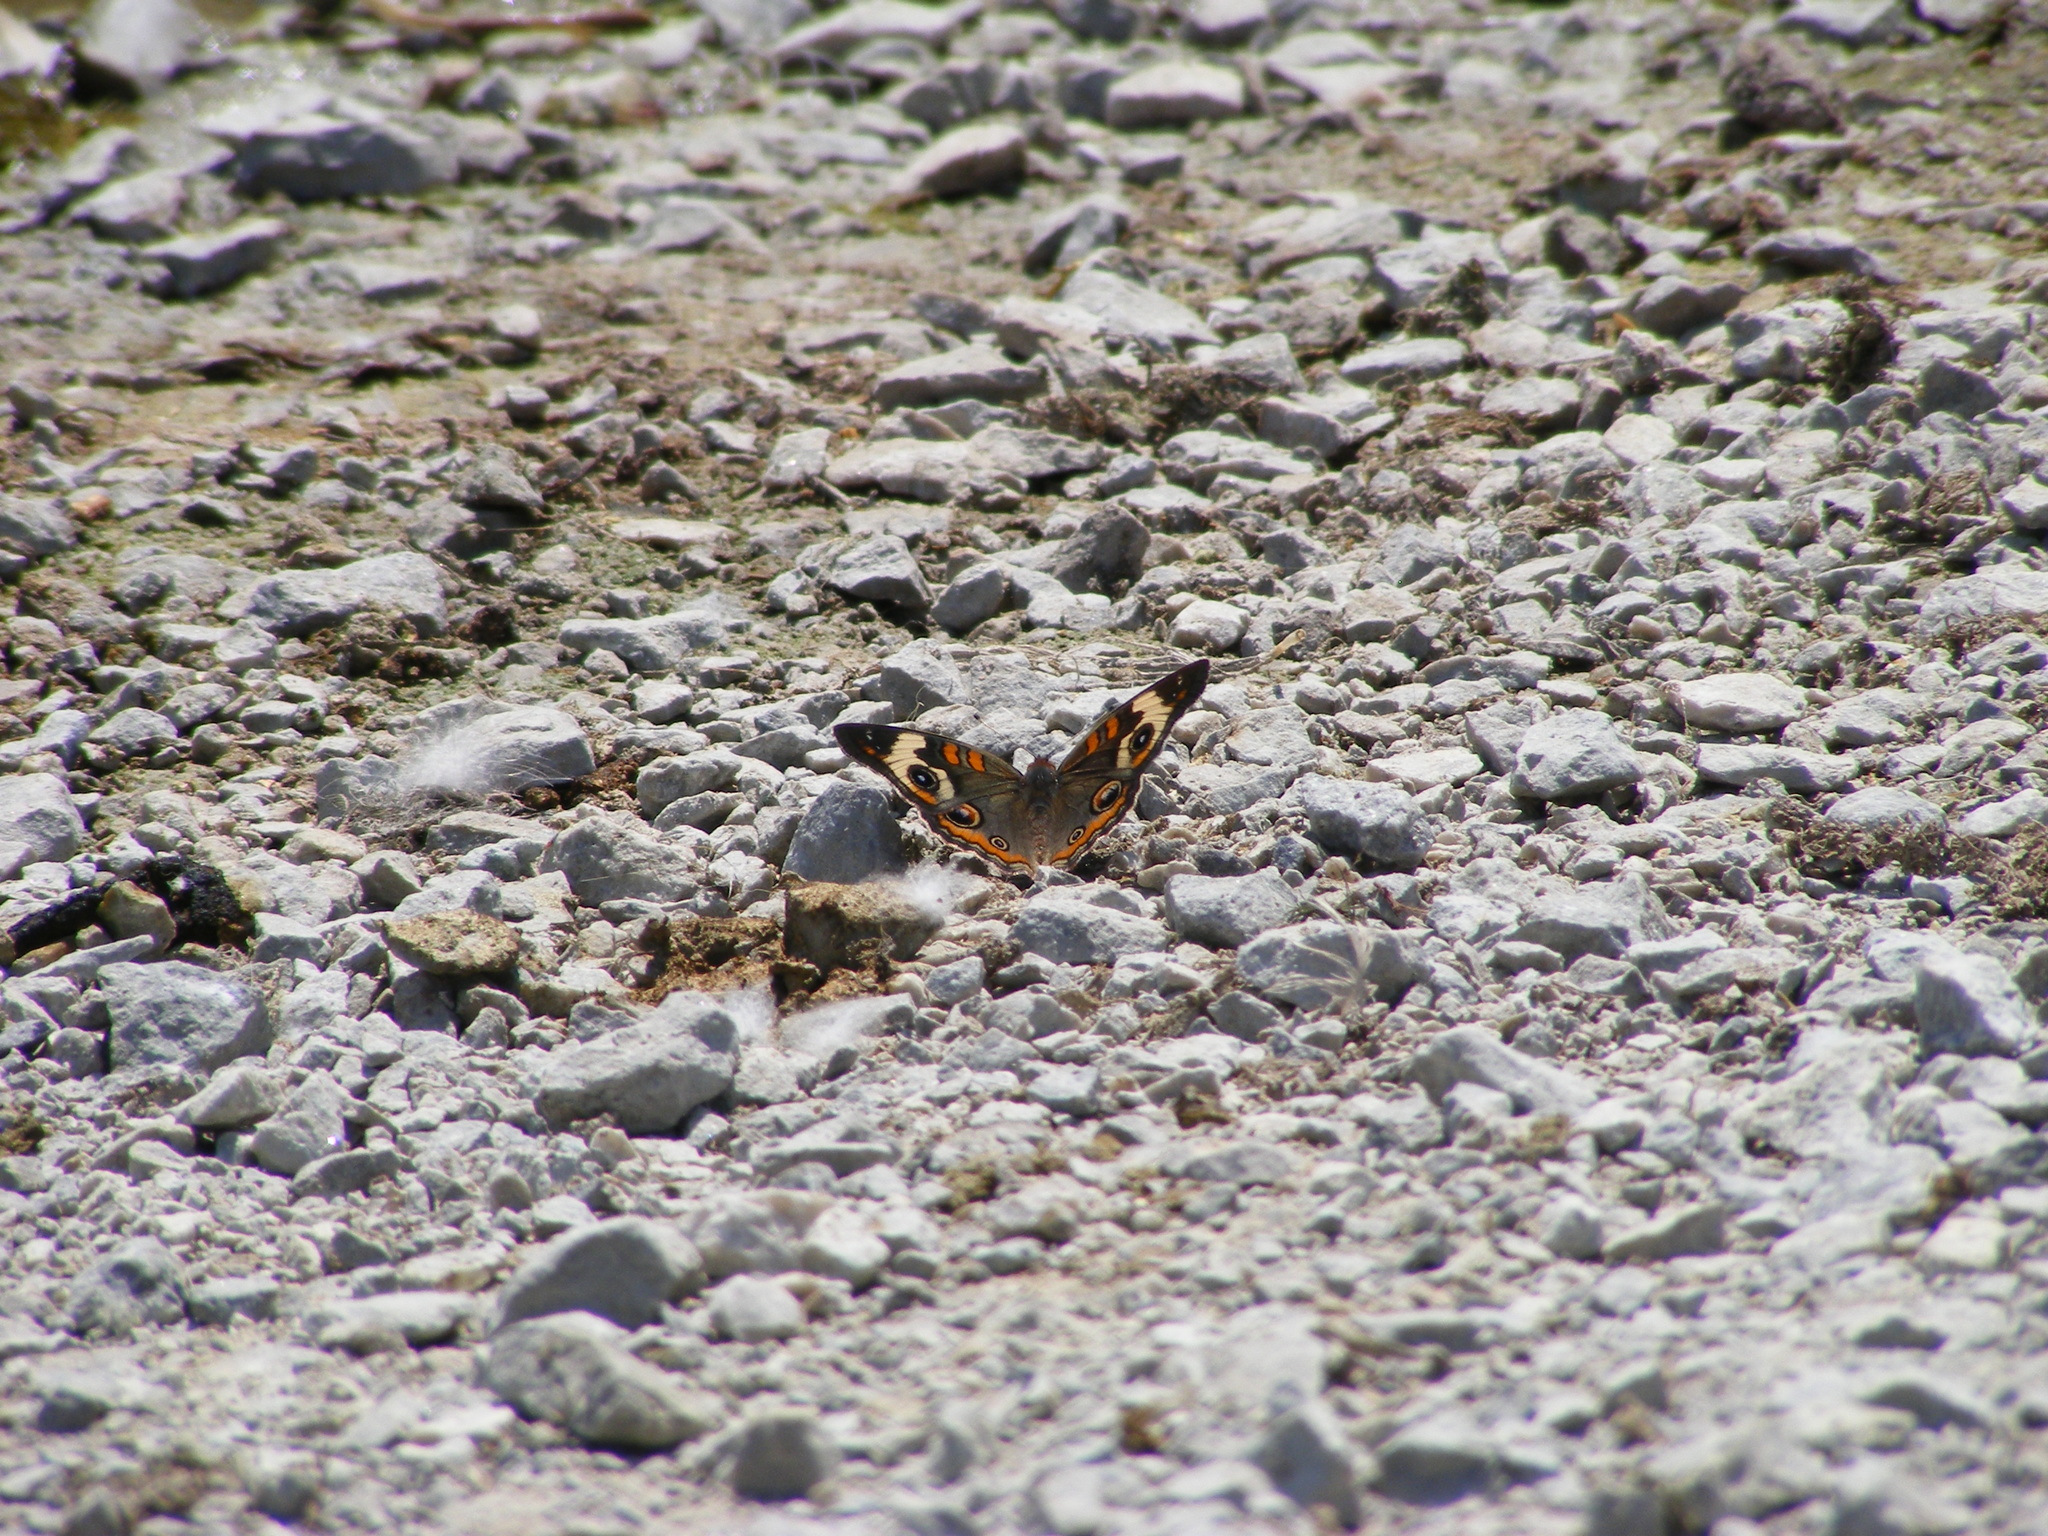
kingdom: Animalia
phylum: Arthropoda
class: Insecta
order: Lepidoptera
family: Nymphalidae
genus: Junonia
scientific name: Junonia coenia
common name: Common buckeye
